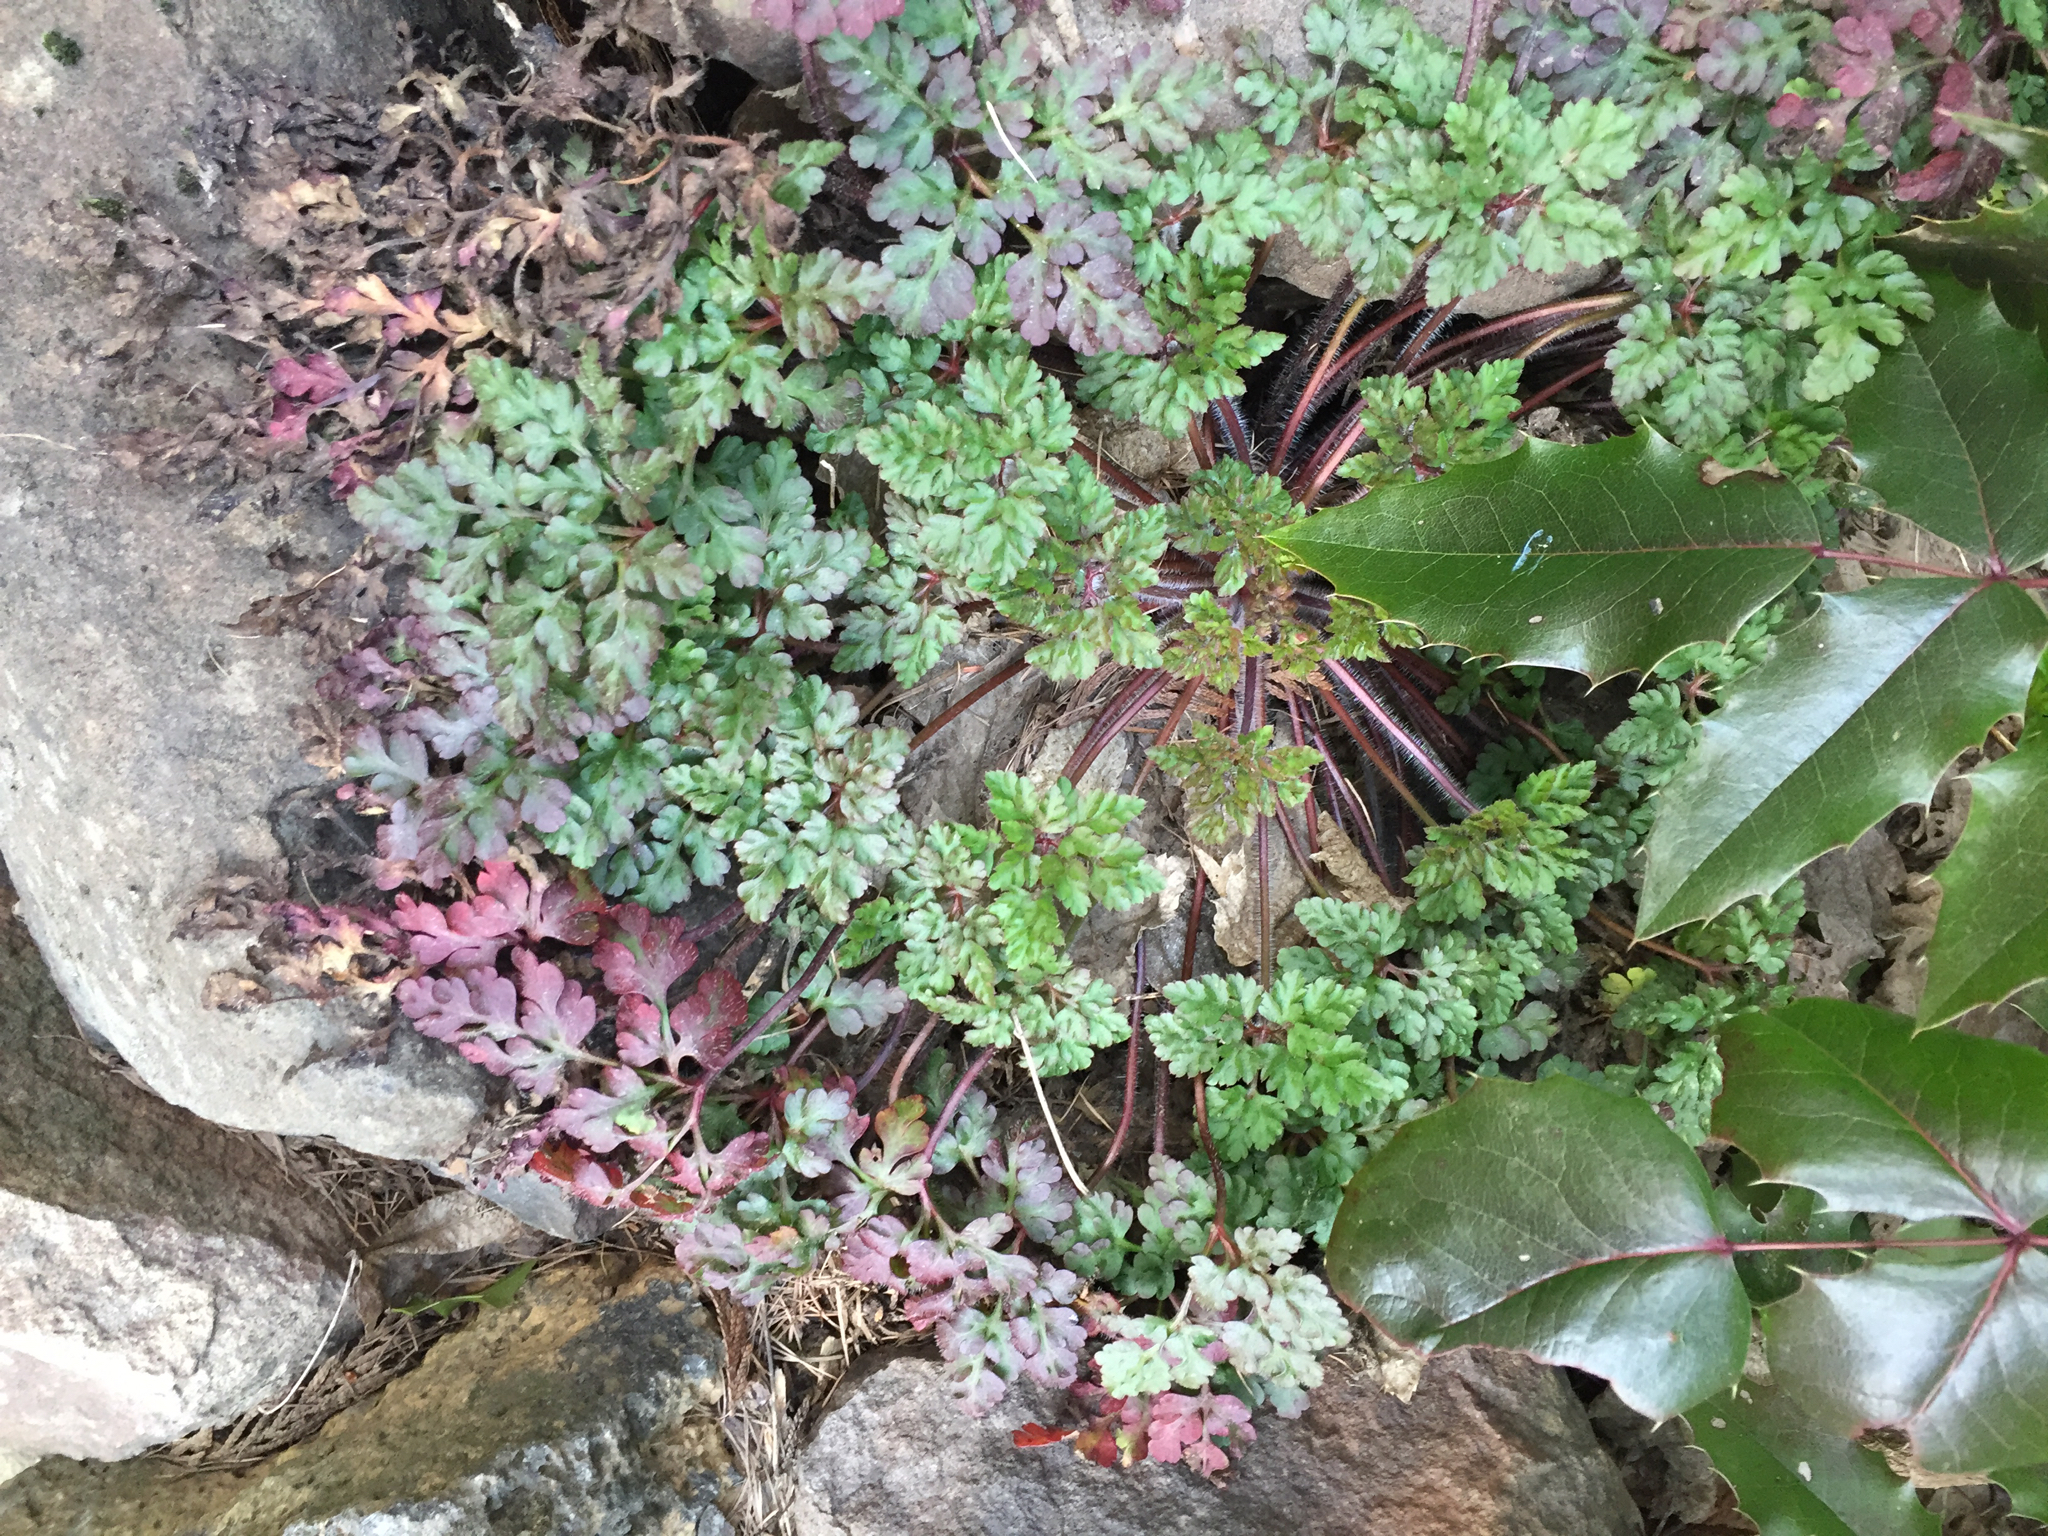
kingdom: Plantae
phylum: Tracheophyta
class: Magnoliopsida
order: Geraniales
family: Geraniaceae
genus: Geranium
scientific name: Geranium robertianum
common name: Herb-robert
